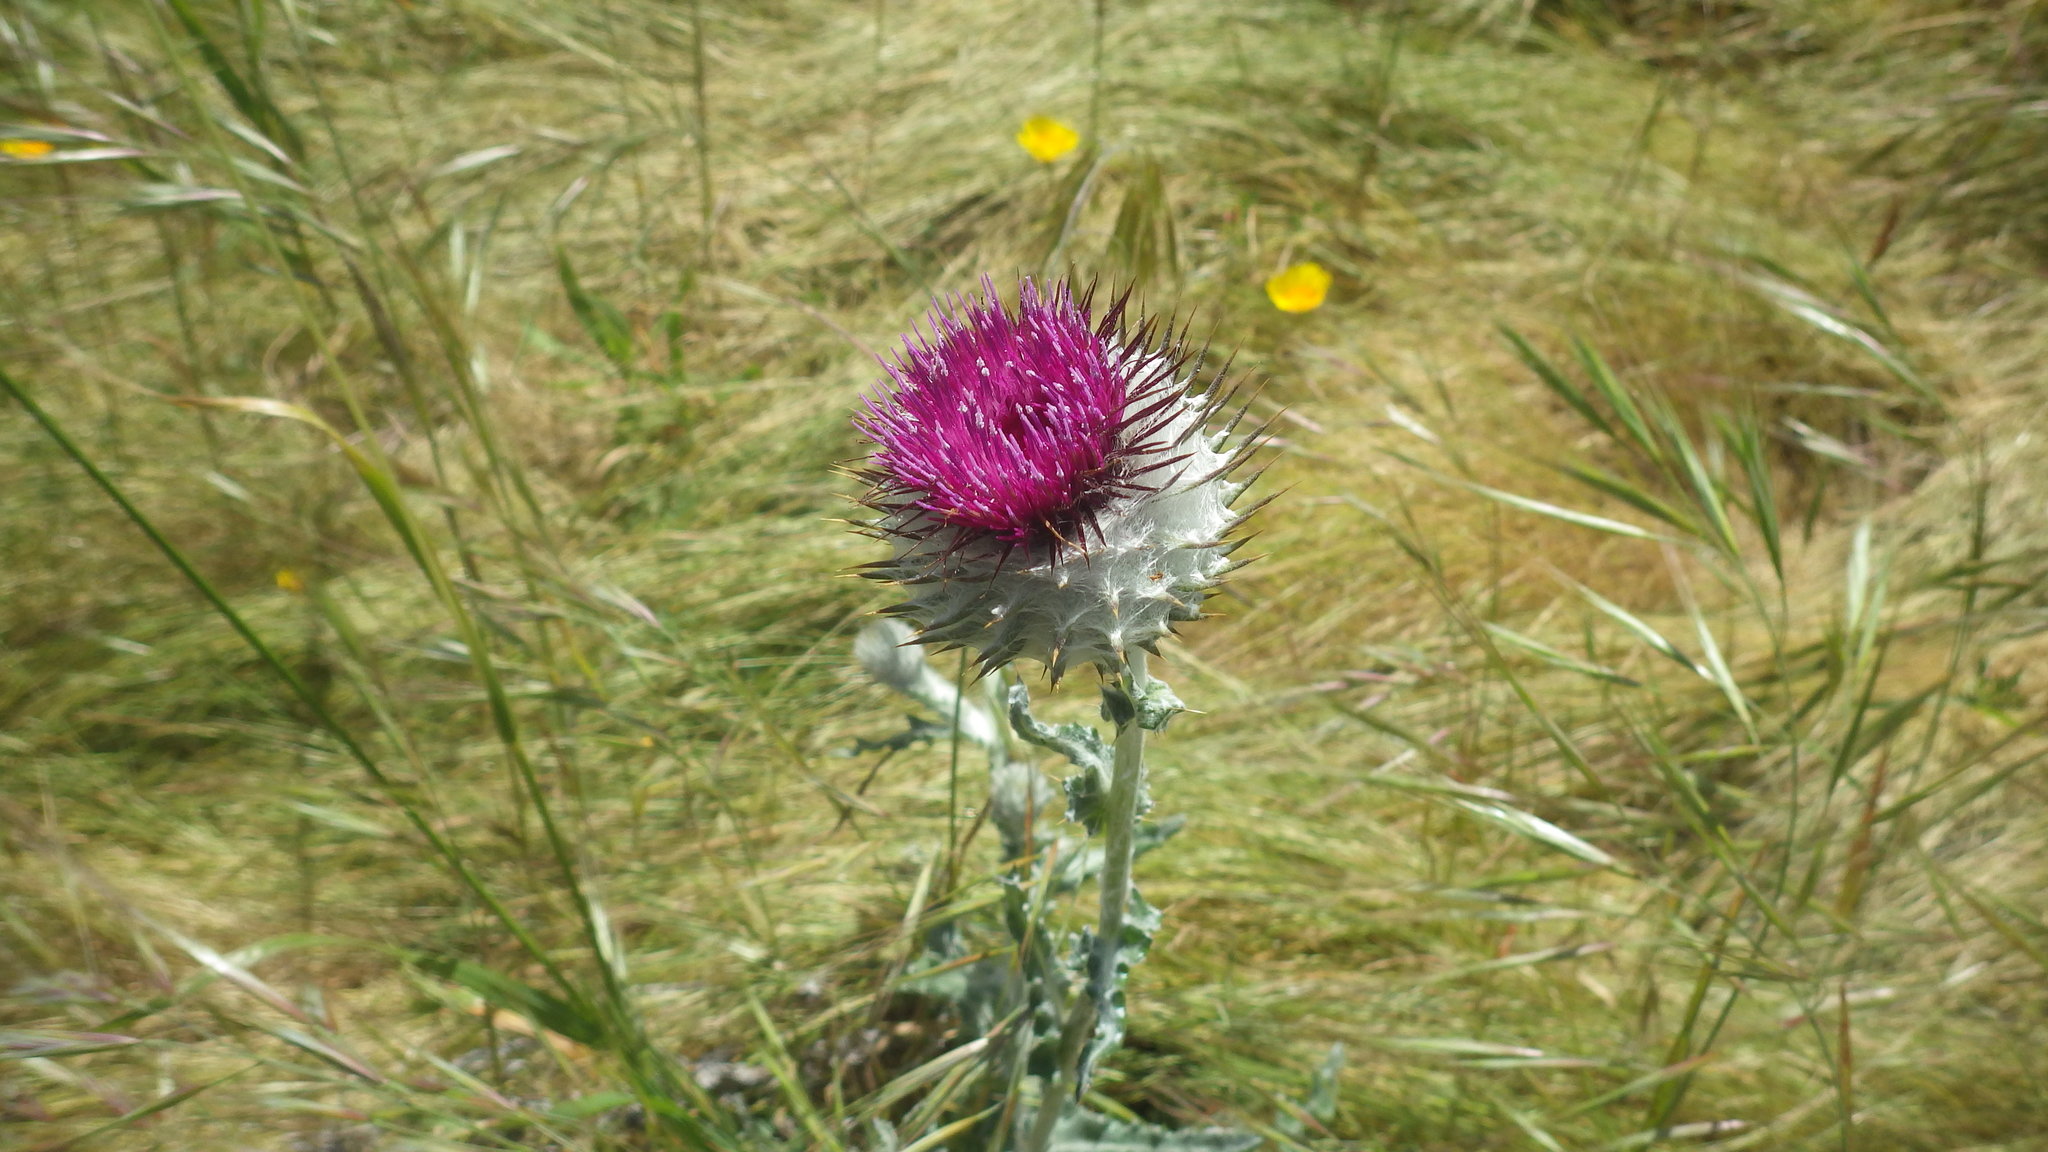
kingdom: Plantae
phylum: Tracheophyta
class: Magnoliopsida
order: Asterales
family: Asteraceae
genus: Cirsium
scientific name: Cirsium occidentale
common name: Western thistle
